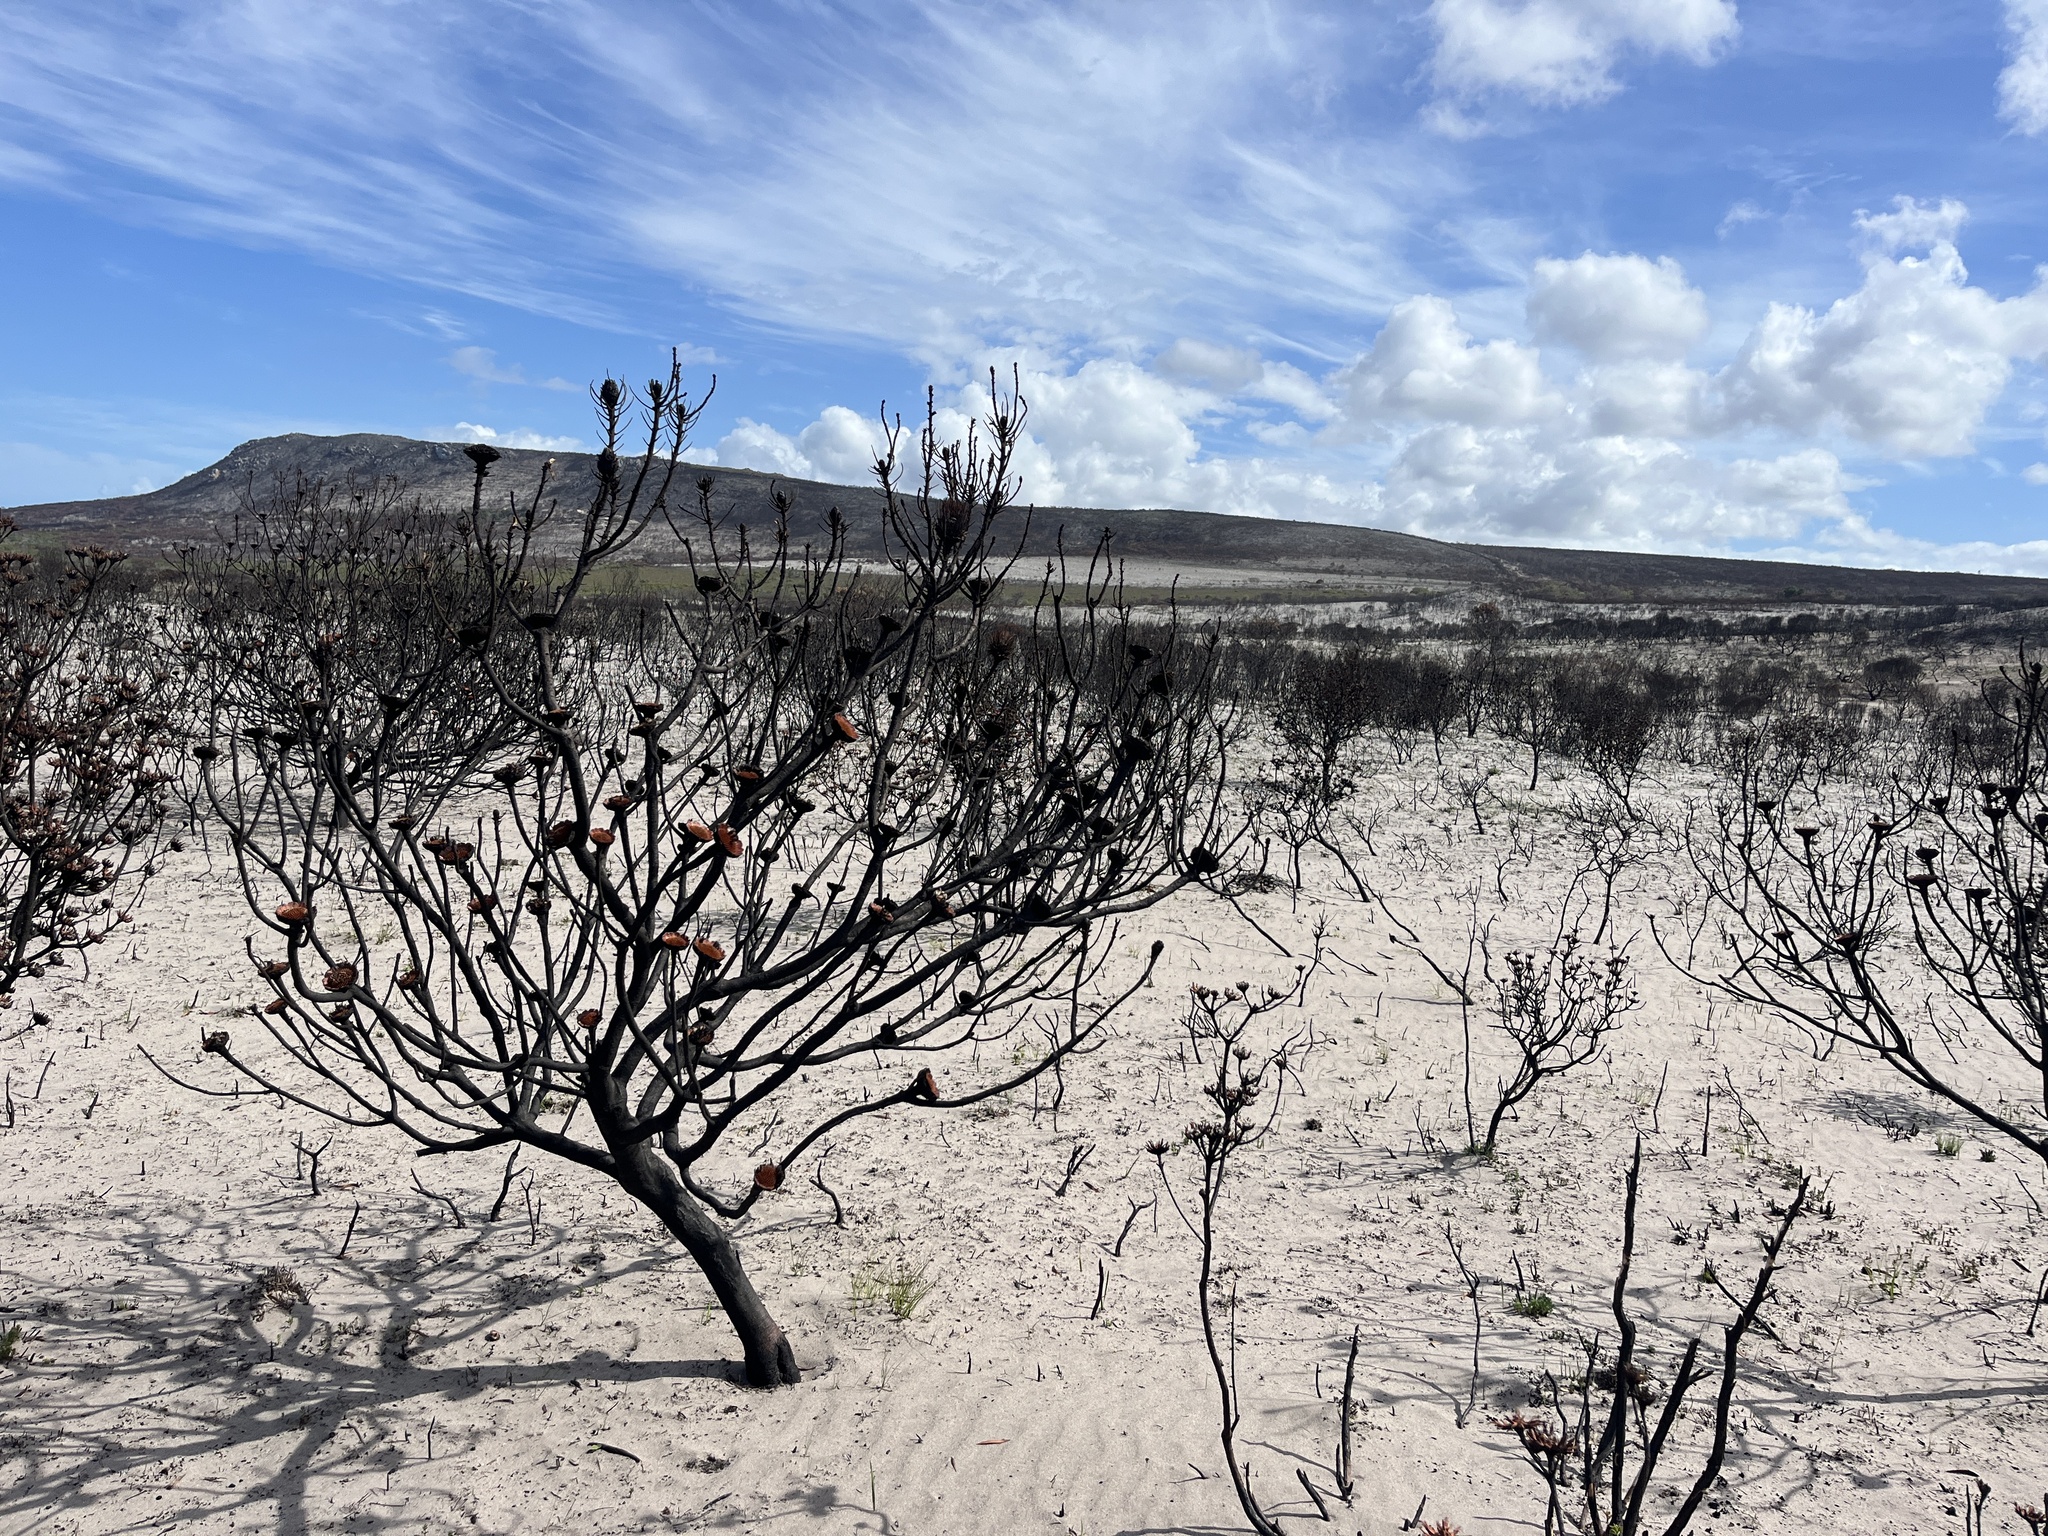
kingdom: Plantae
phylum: Tracheophyta
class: Magnoliopsida
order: Proteales
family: Proteaceae
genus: Protea
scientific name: Protea susannae
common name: Foetid-leaf sugarbush
